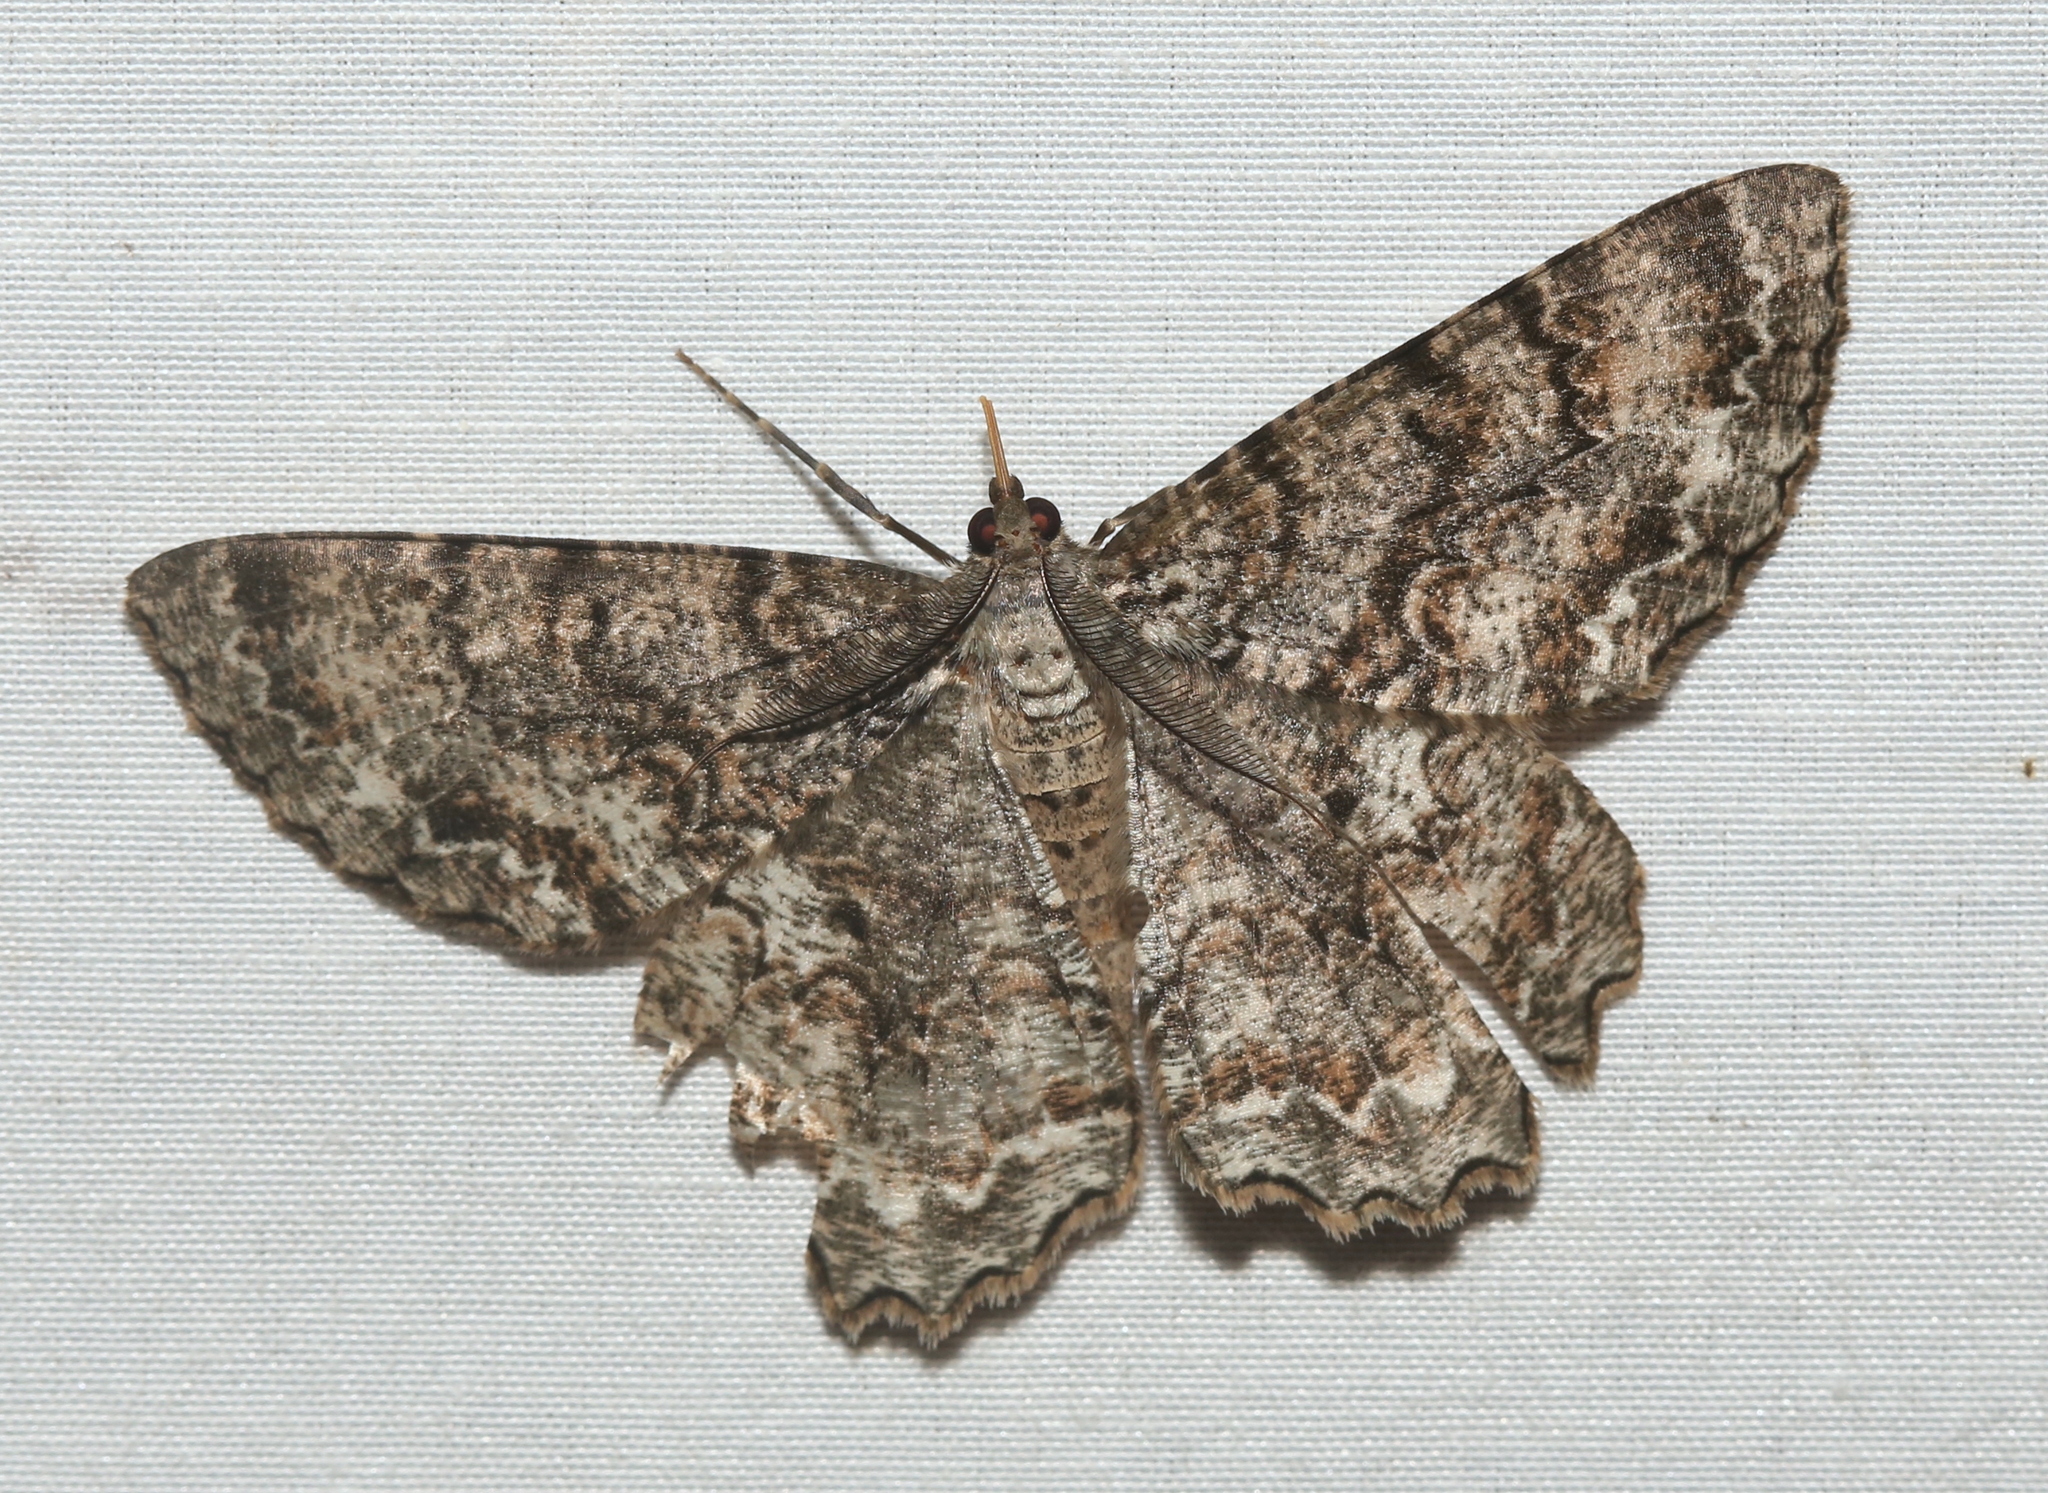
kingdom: Animalia
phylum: Arthropoda
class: Insecta
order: Lepidoptera
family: Geometridae
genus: Epimecis
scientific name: Epimecis hortaria
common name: Tulip-tree beauty
